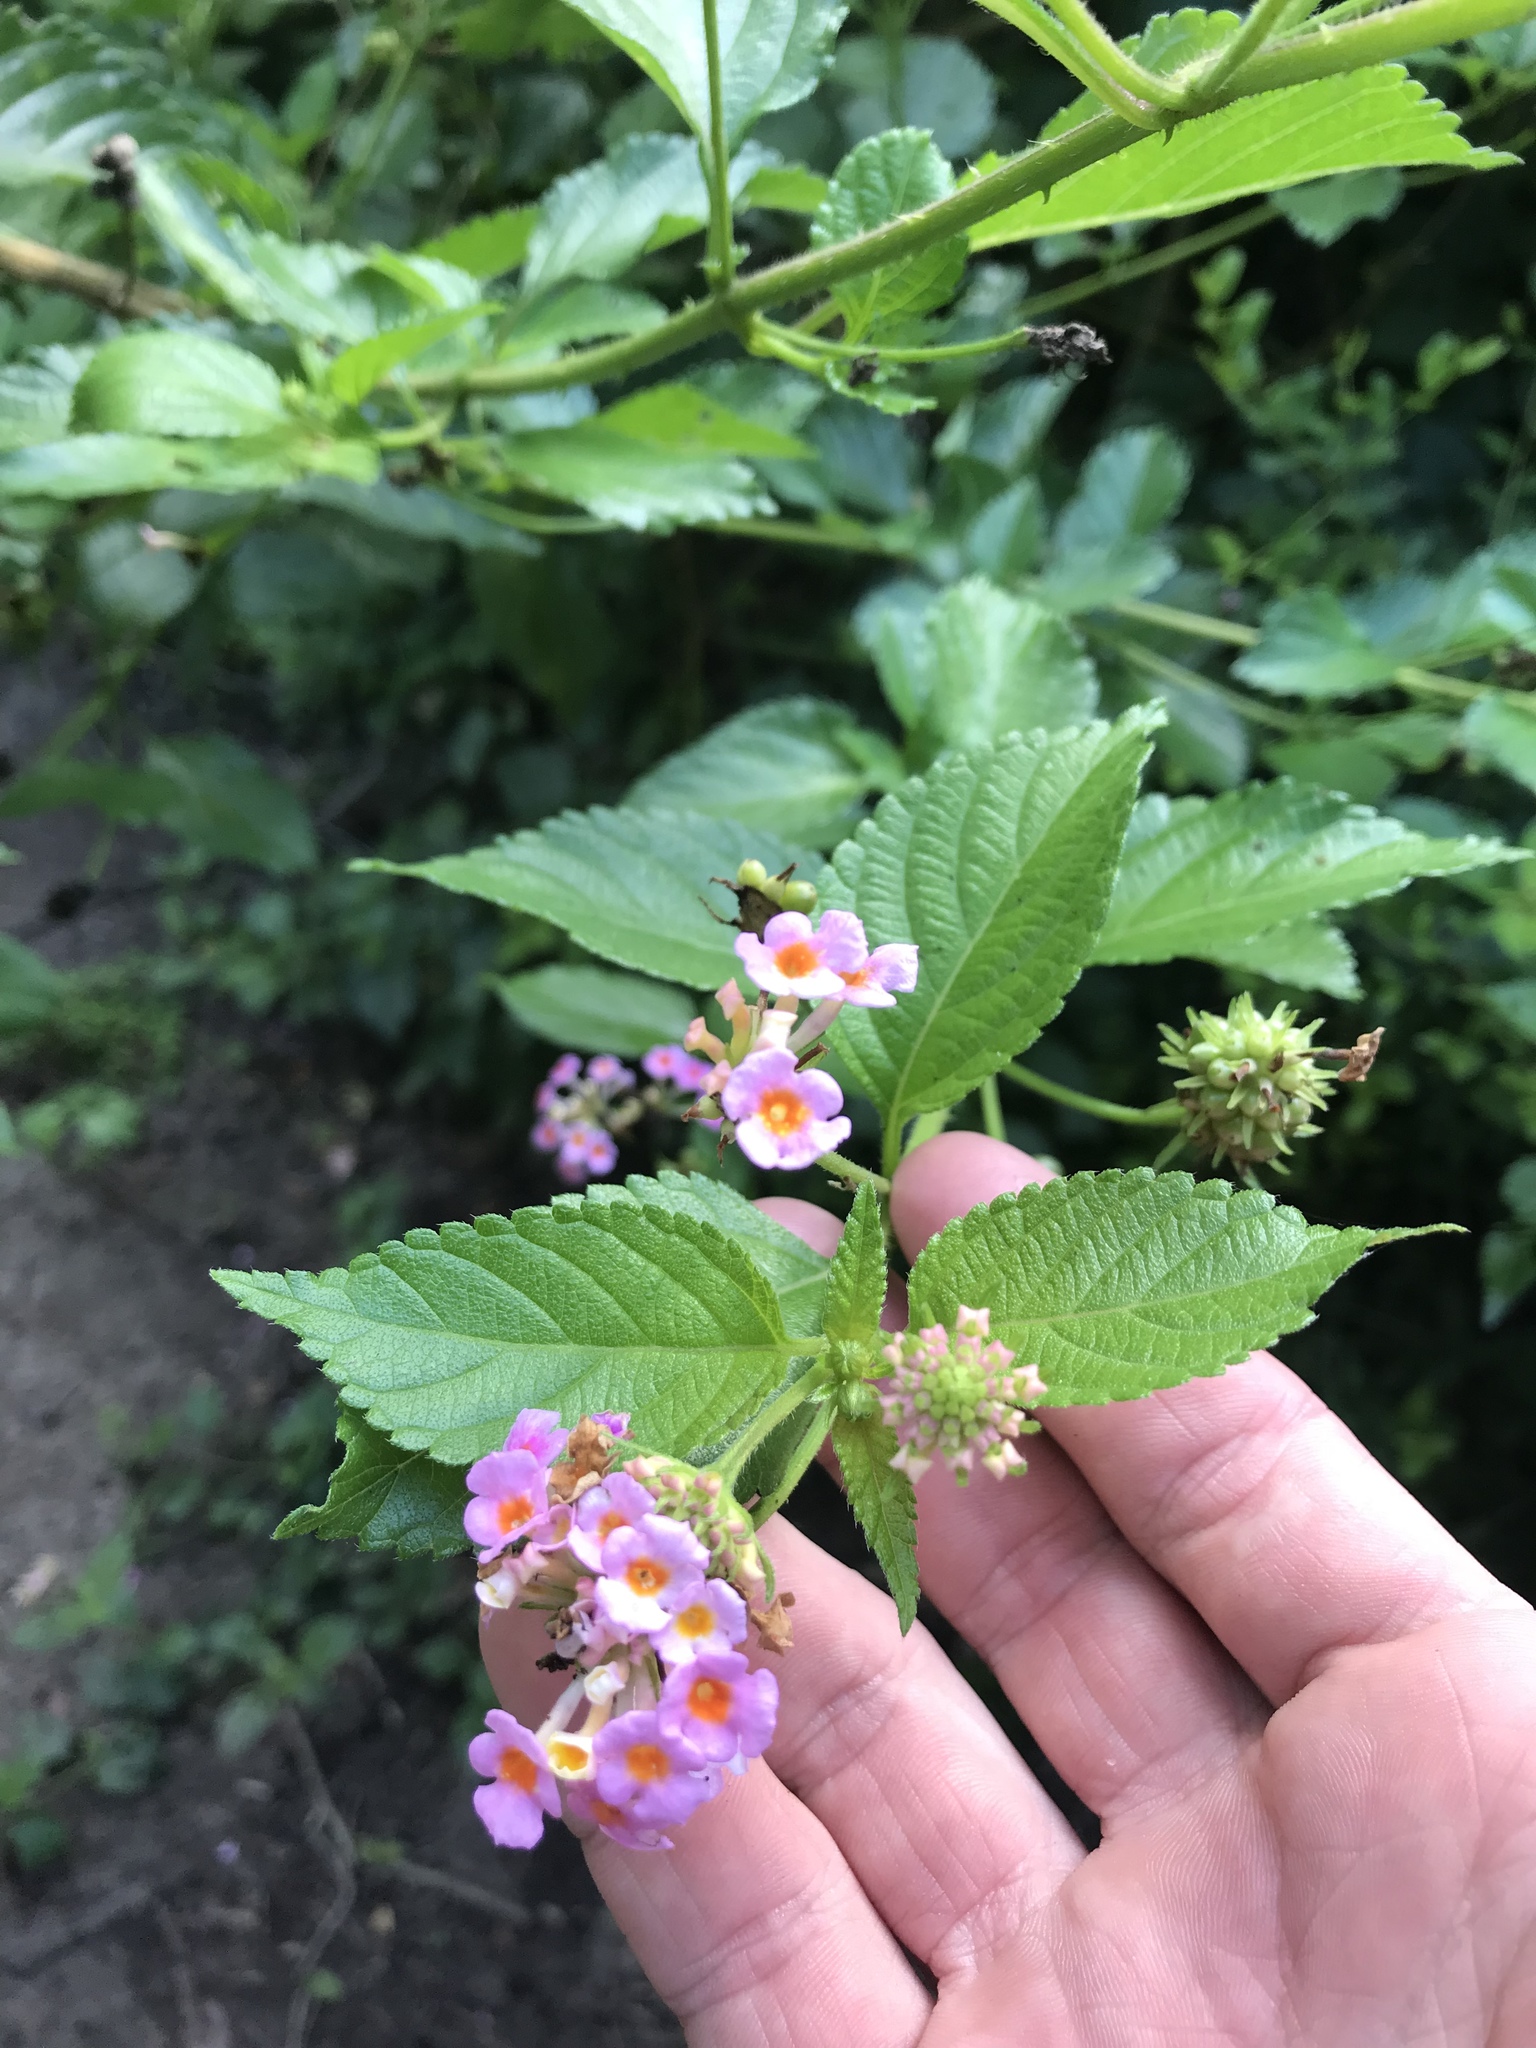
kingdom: Plantae
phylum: Tracheophyta
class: Magnoliopsida
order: Lamiales
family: Verbenaceae
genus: Lantana
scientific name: Lantana strigocamara
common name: Lantana
